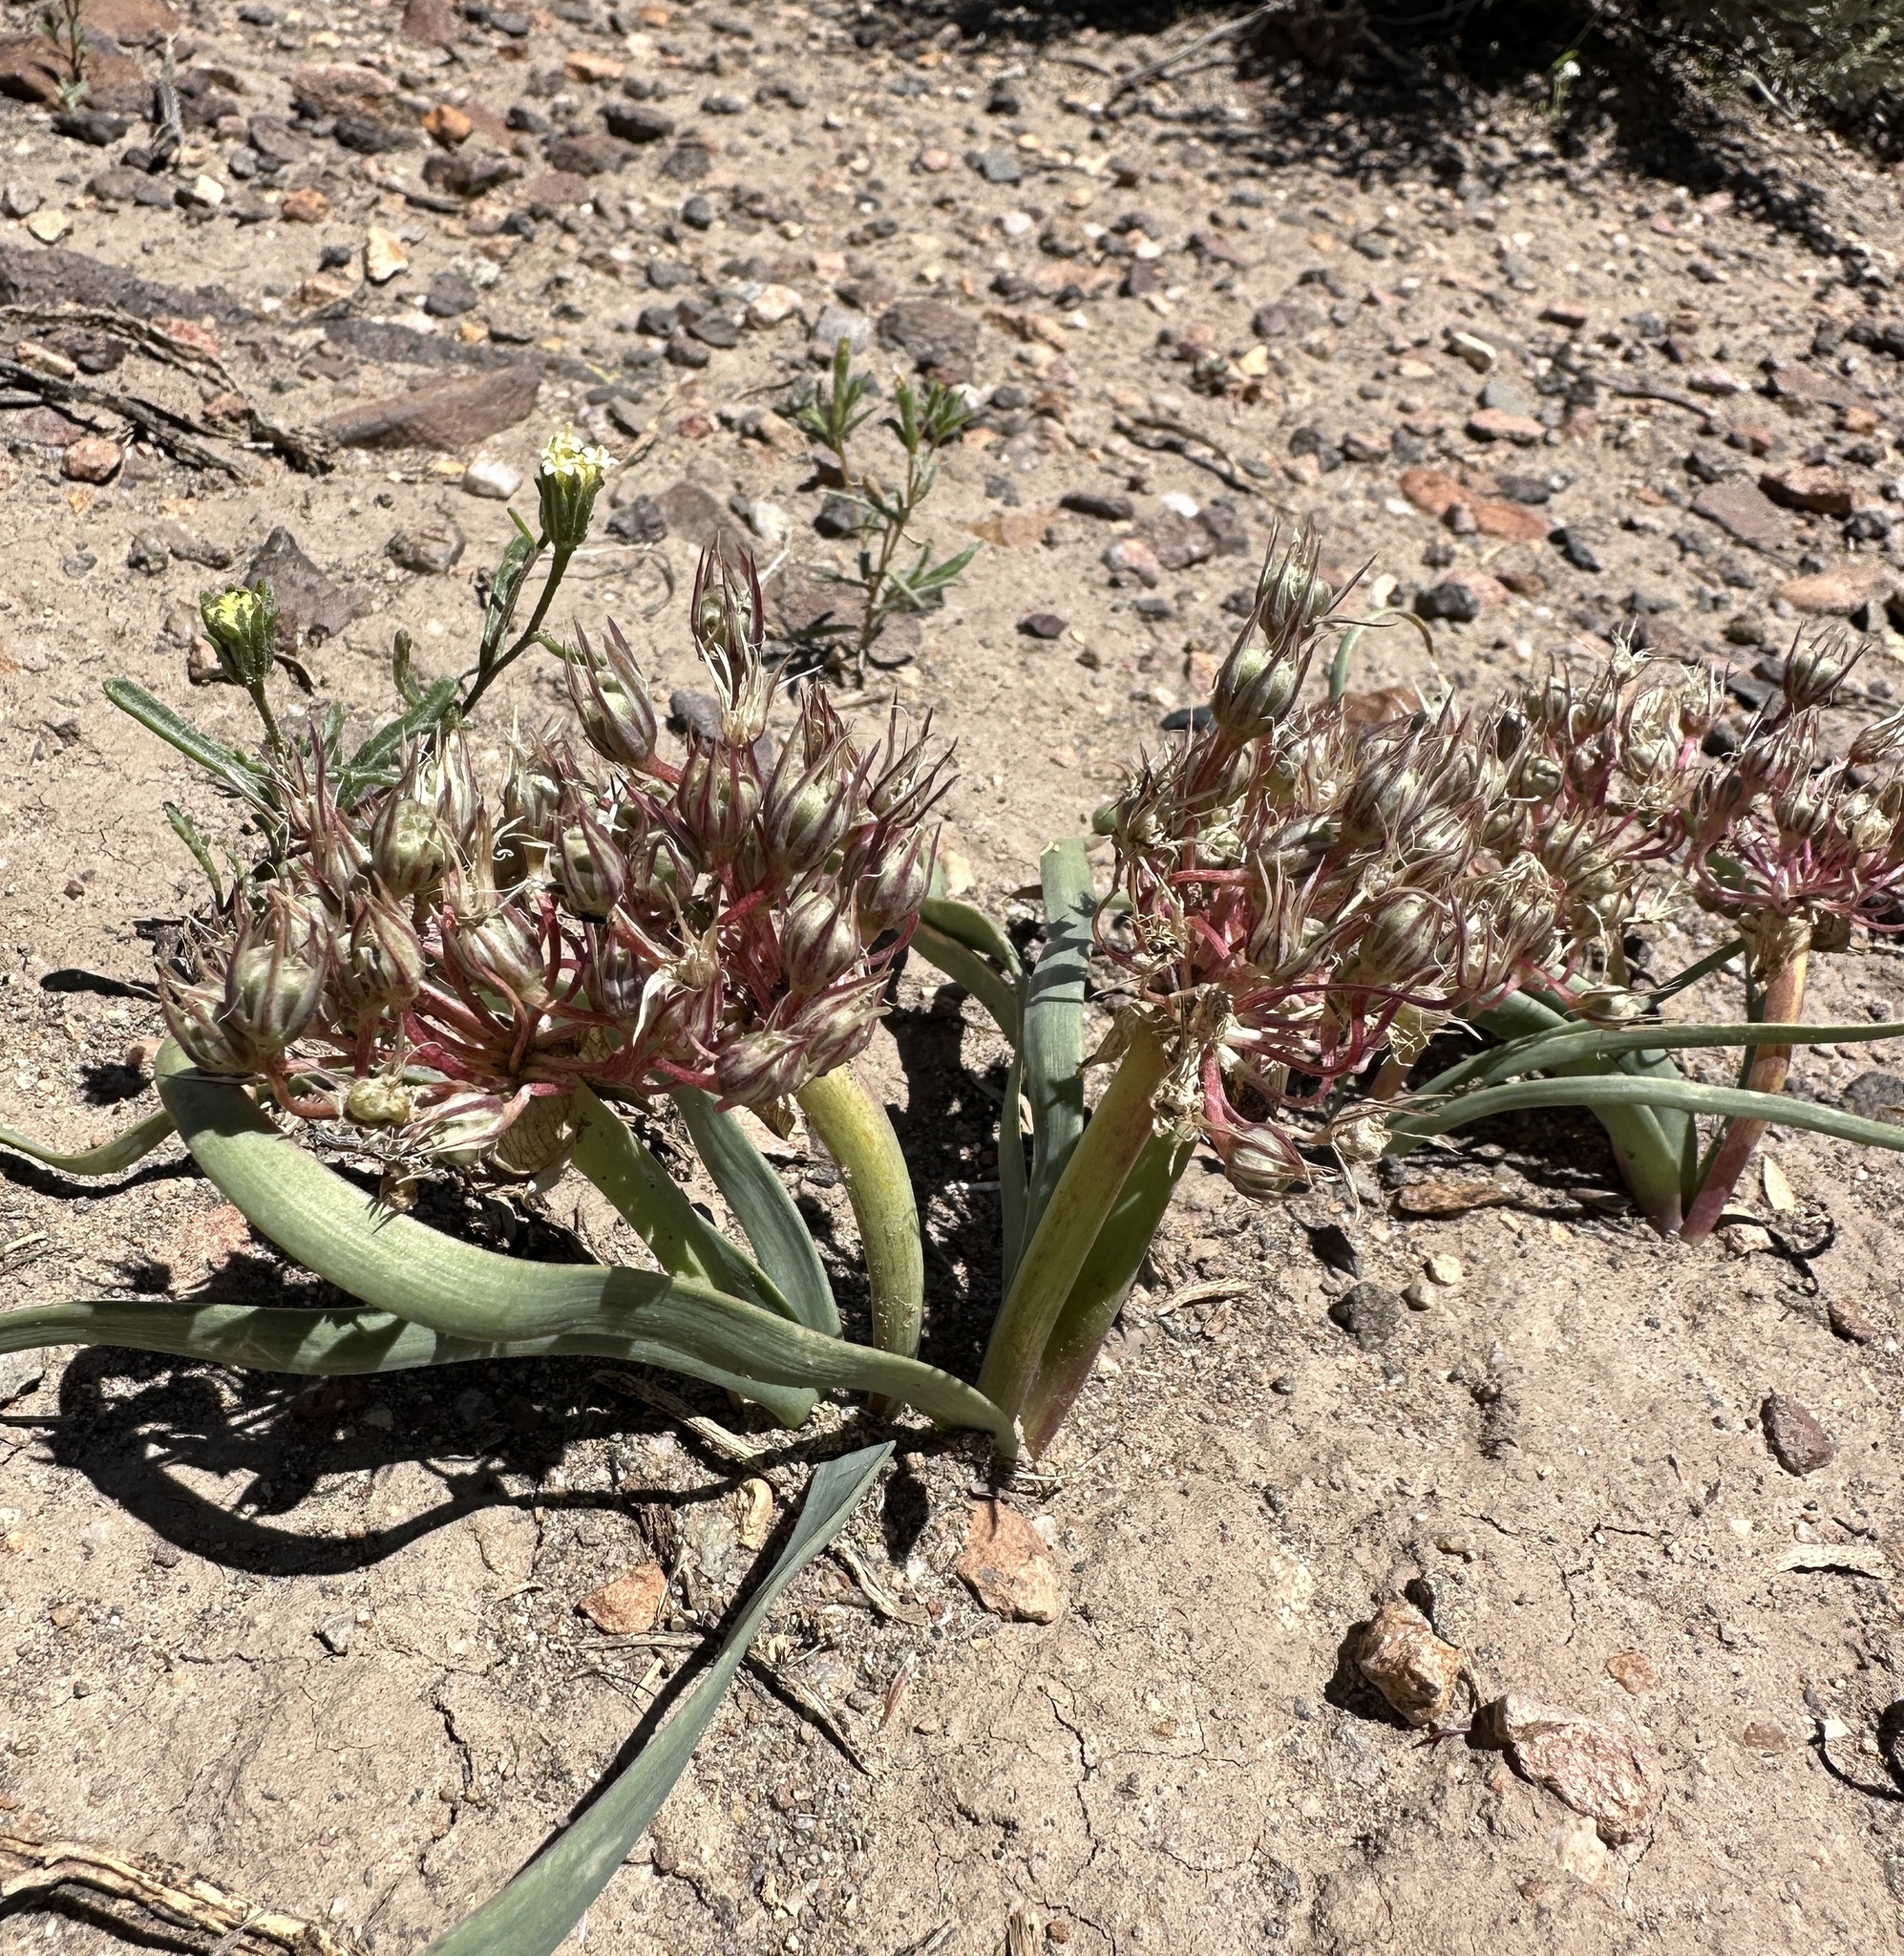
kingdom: Plantae
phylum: Tracheophyta
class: Liliopsida
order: Asparagales
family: Amaryllidaceae
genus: Allium
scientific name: Allium anceps
